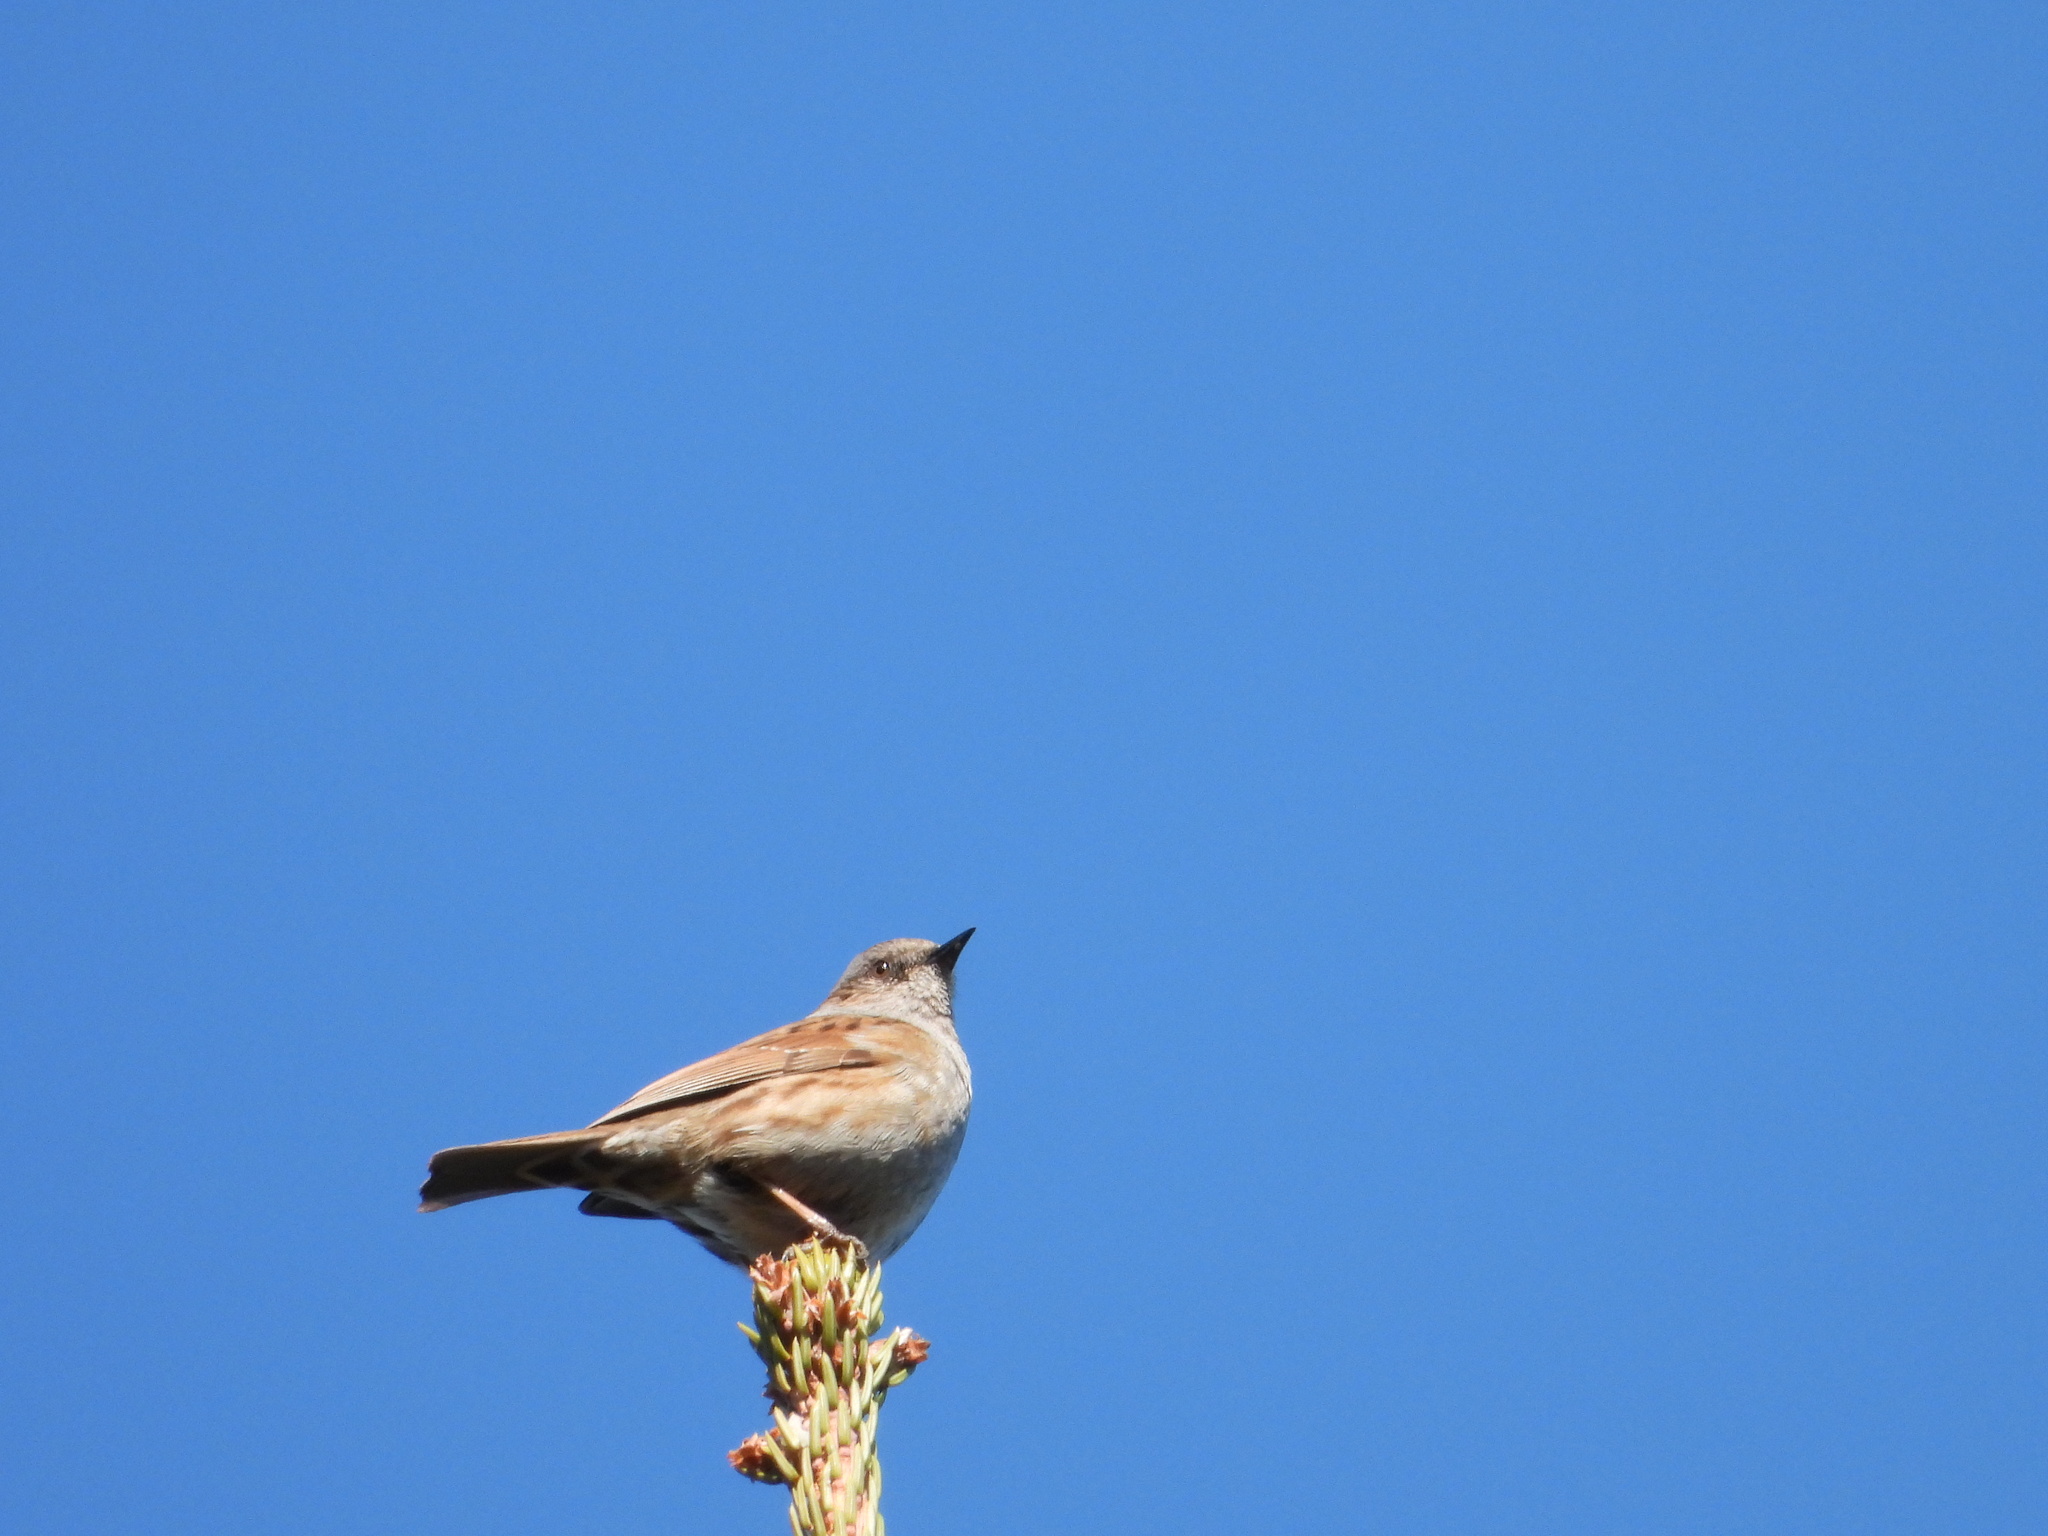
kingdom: Animalia
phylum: Chordata
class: Aves
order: Passeriformes
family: Prunellidae
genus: Prunella
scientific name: Prunella modularis
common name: Dunnock
